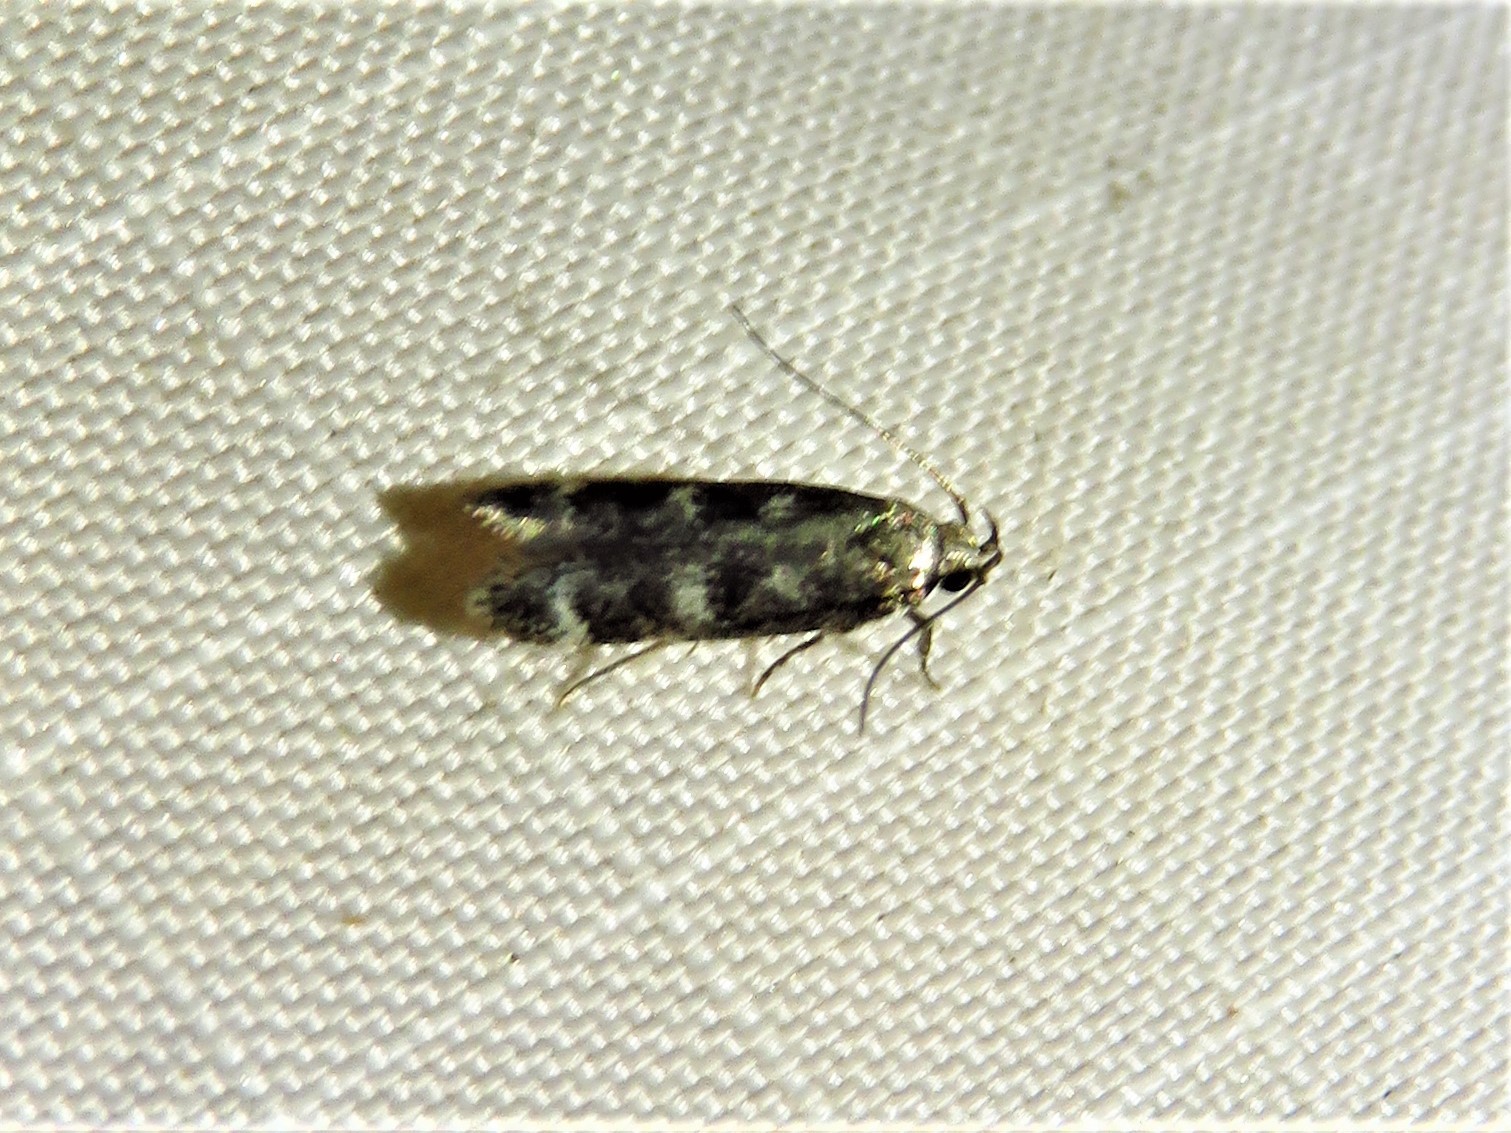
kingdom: Animalia
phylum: Arthropoda
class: Insecta
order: Lepidoptera
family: Gelechiidae
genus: Fascista
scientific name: Fascista bimaculella
